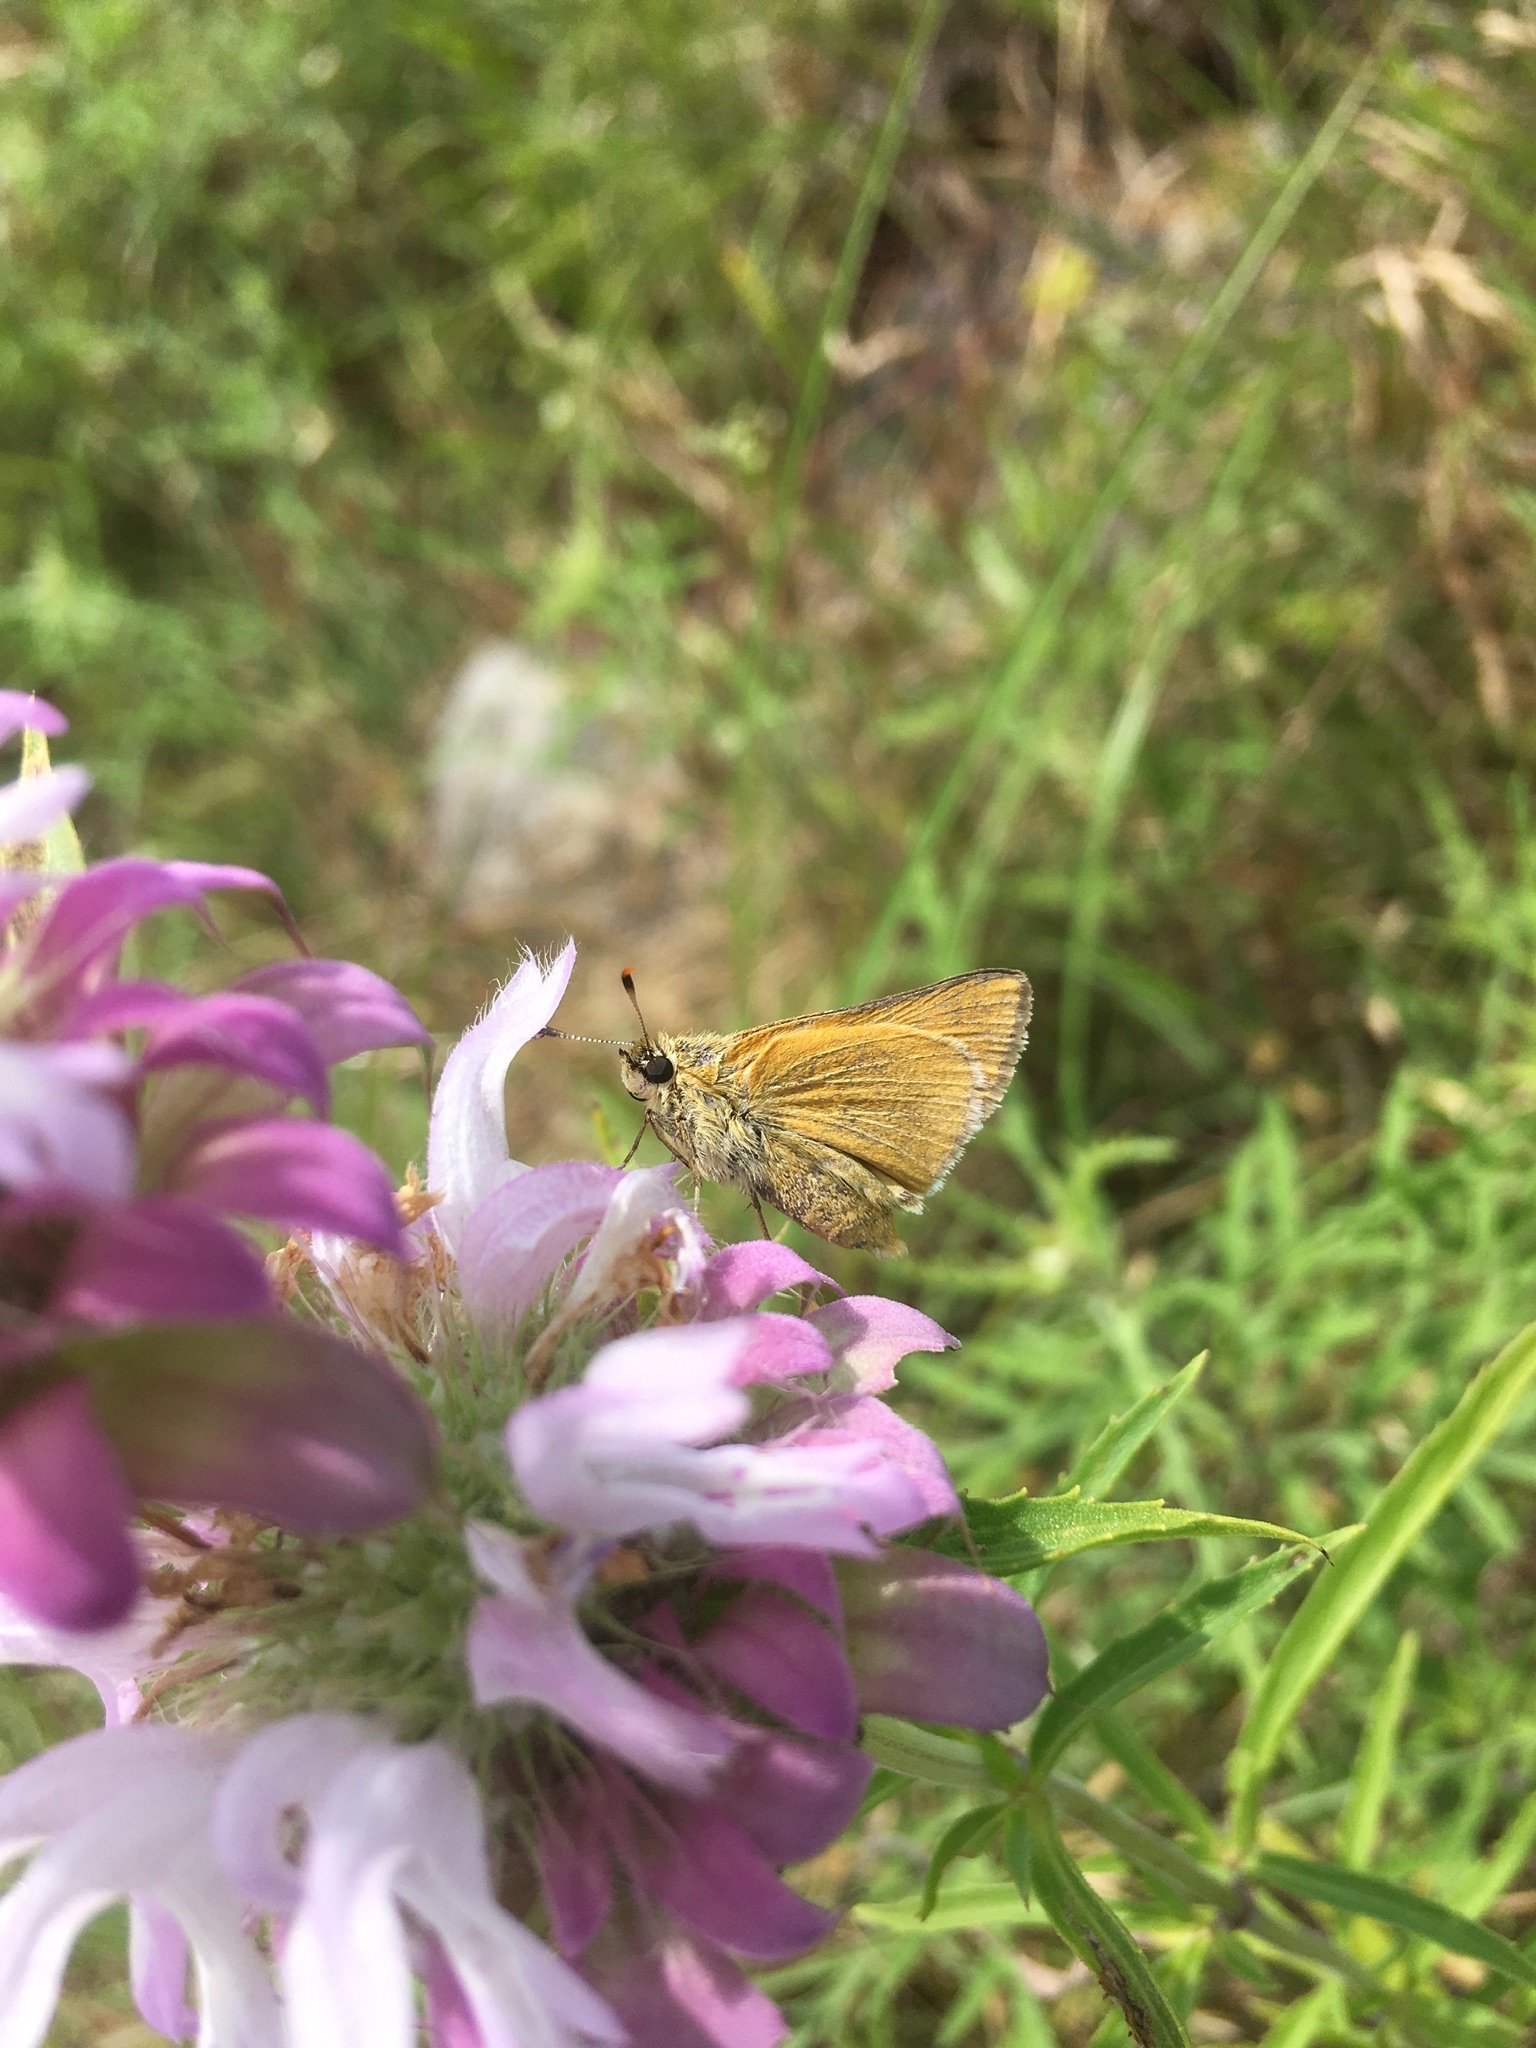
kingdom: Animalia
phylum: Arthropoda
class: Insecta
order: Lepidoptera
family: Hesperiidae
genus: Atrytone
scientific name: Atrytone arogos
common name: Arogos skipper
